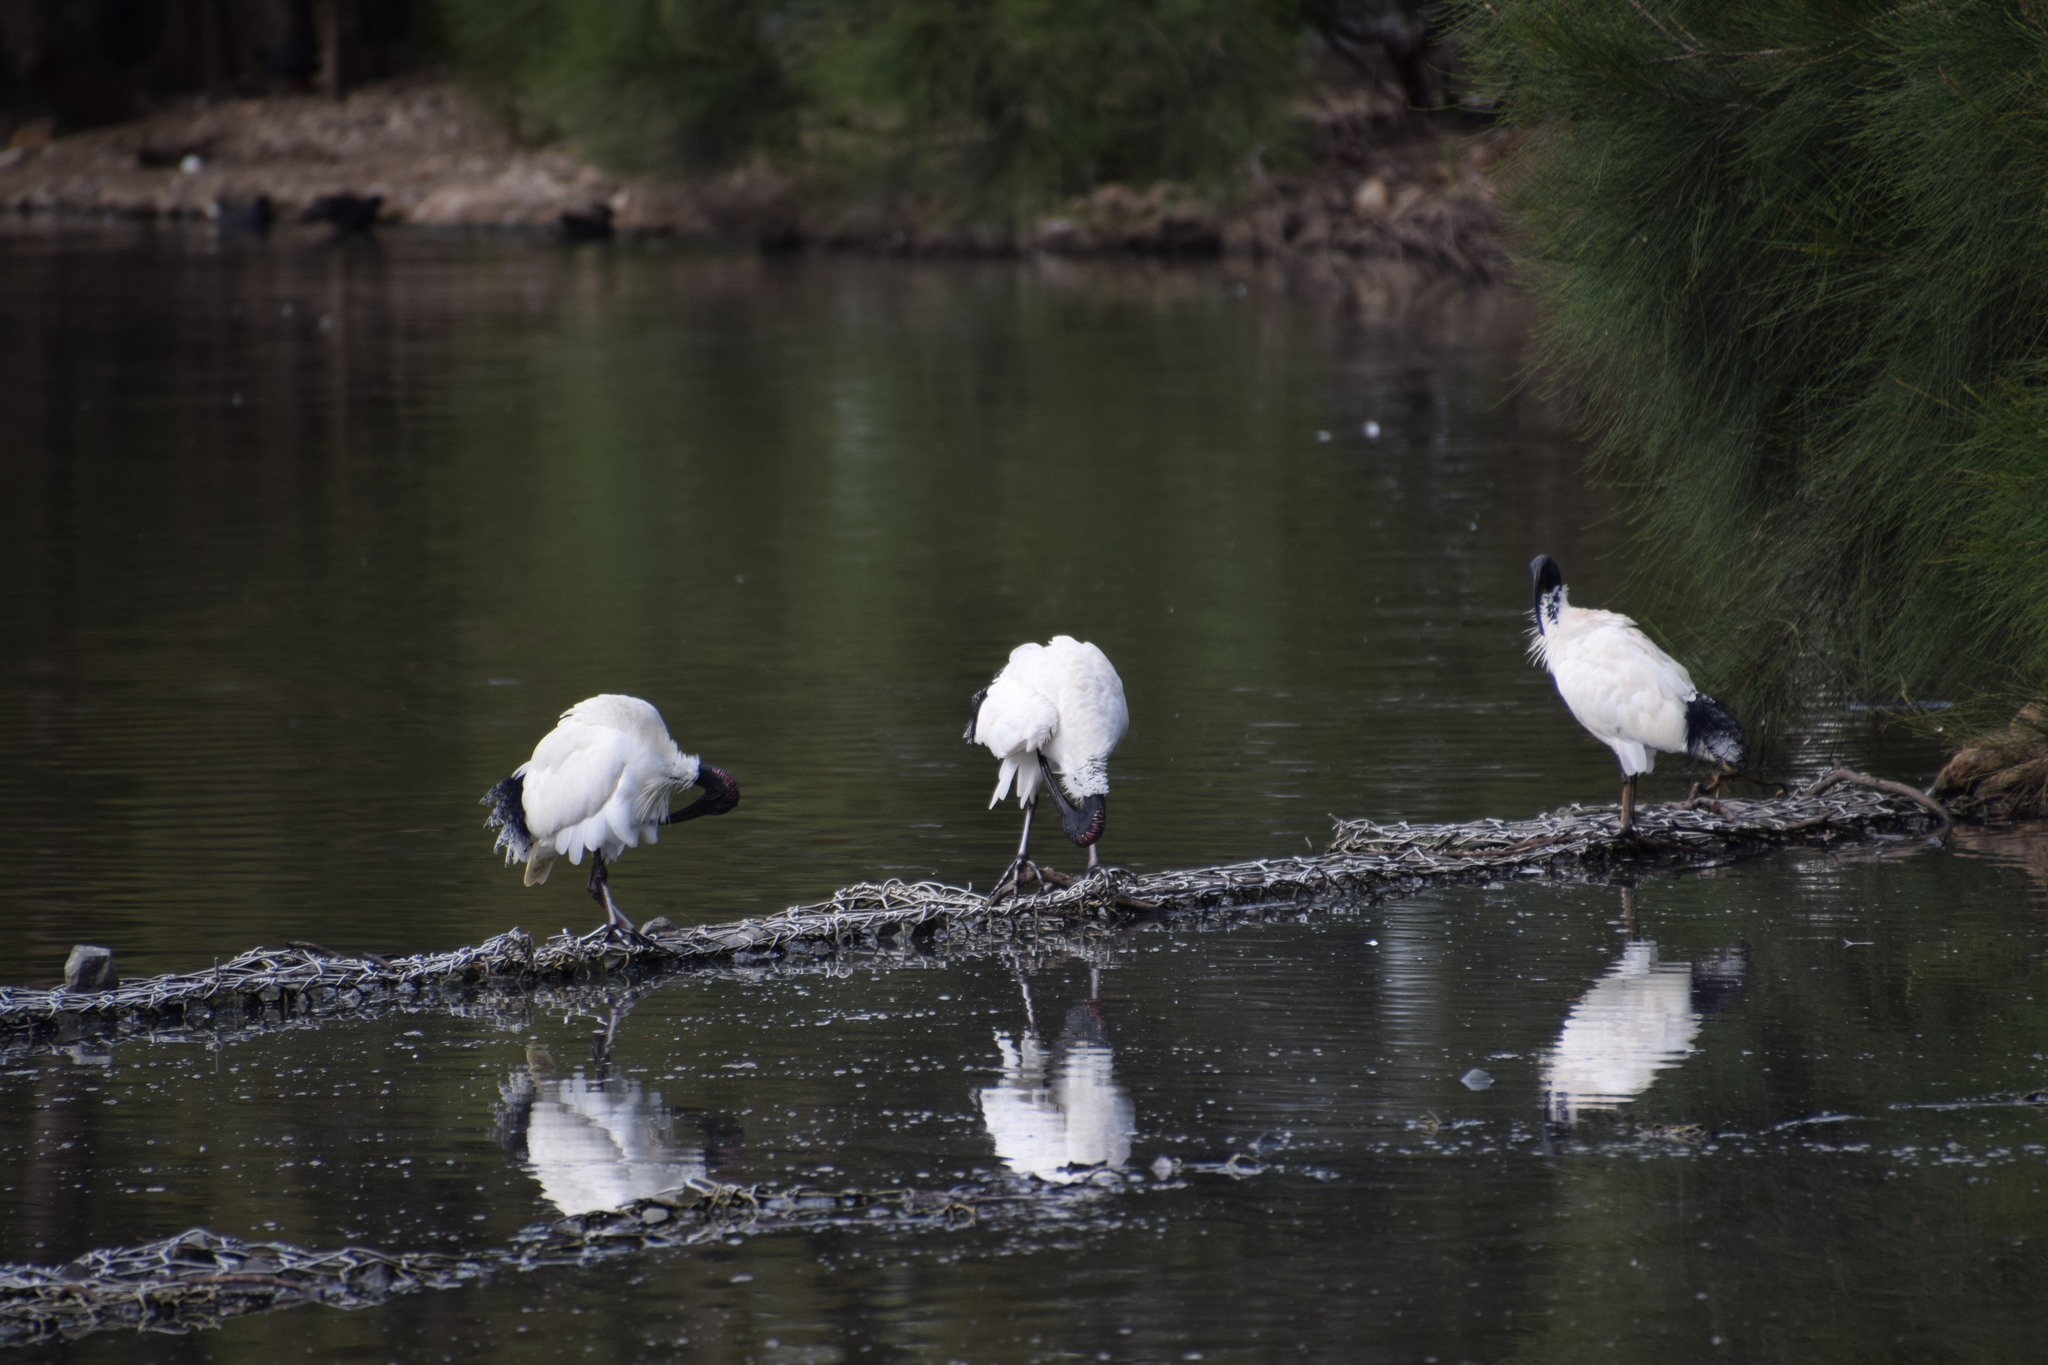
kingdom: Animalia
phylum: Chordata
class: Aves
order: Pelecaniformes
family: Threskiornithidae
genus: Threskiornis
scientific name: Threskiornis molucca
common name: Australian white ibis
